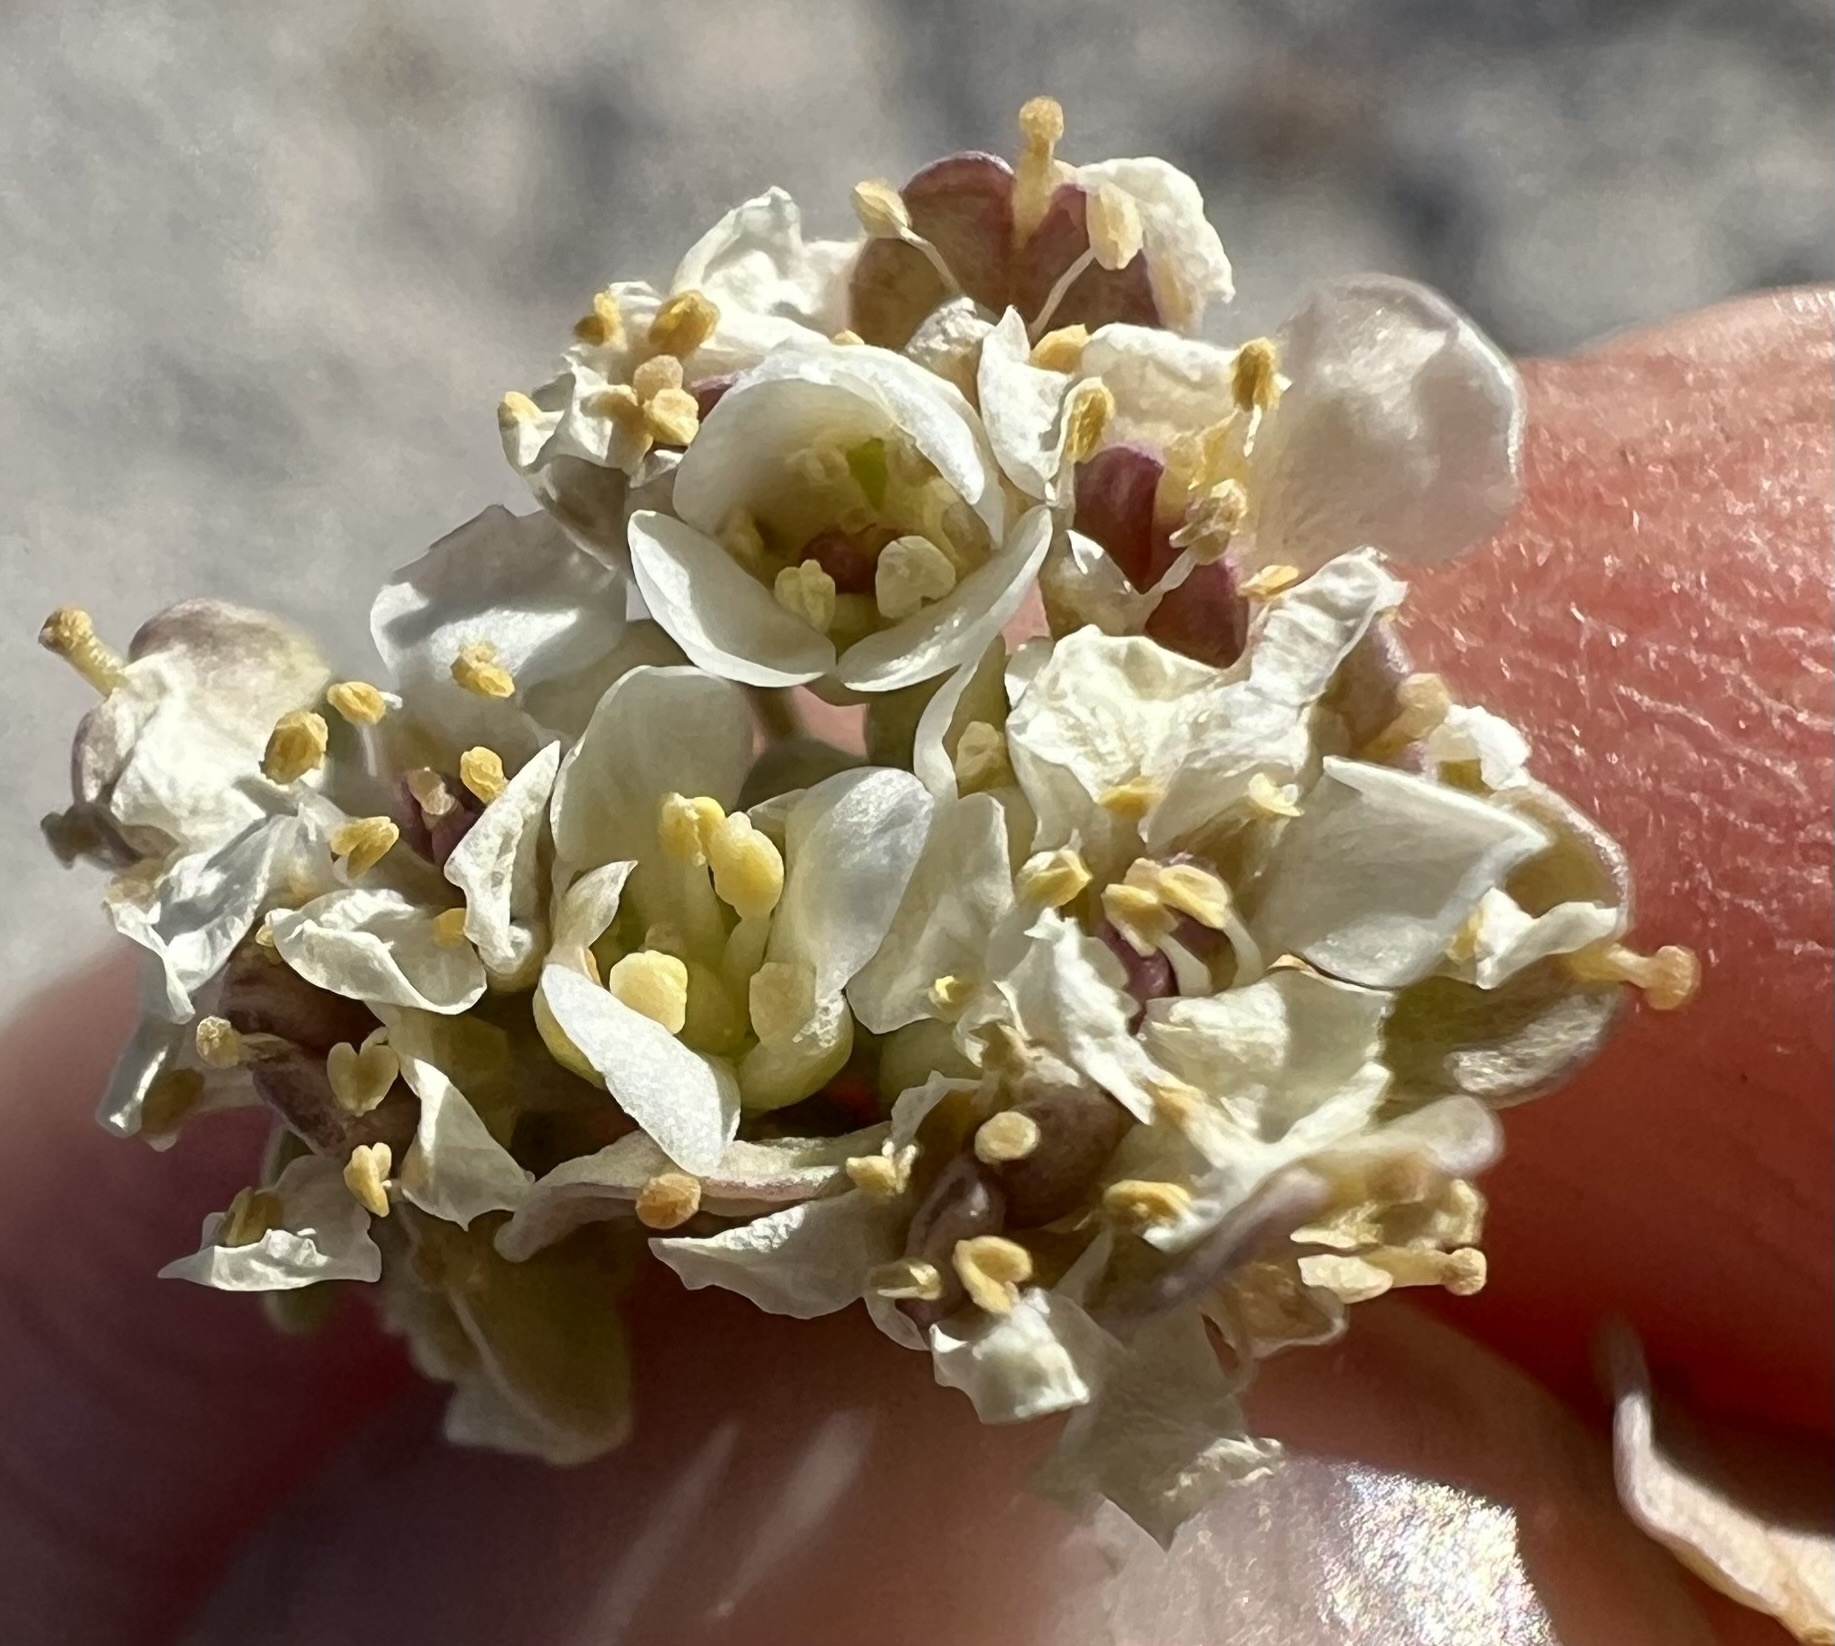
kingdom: Plantae
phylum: Tracheophyta
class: Magnoliopsida
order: Brassicales
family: Brassicaceae
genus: Lepidium
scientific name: Lepidium fremontii
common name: Fremont's pepperwort
